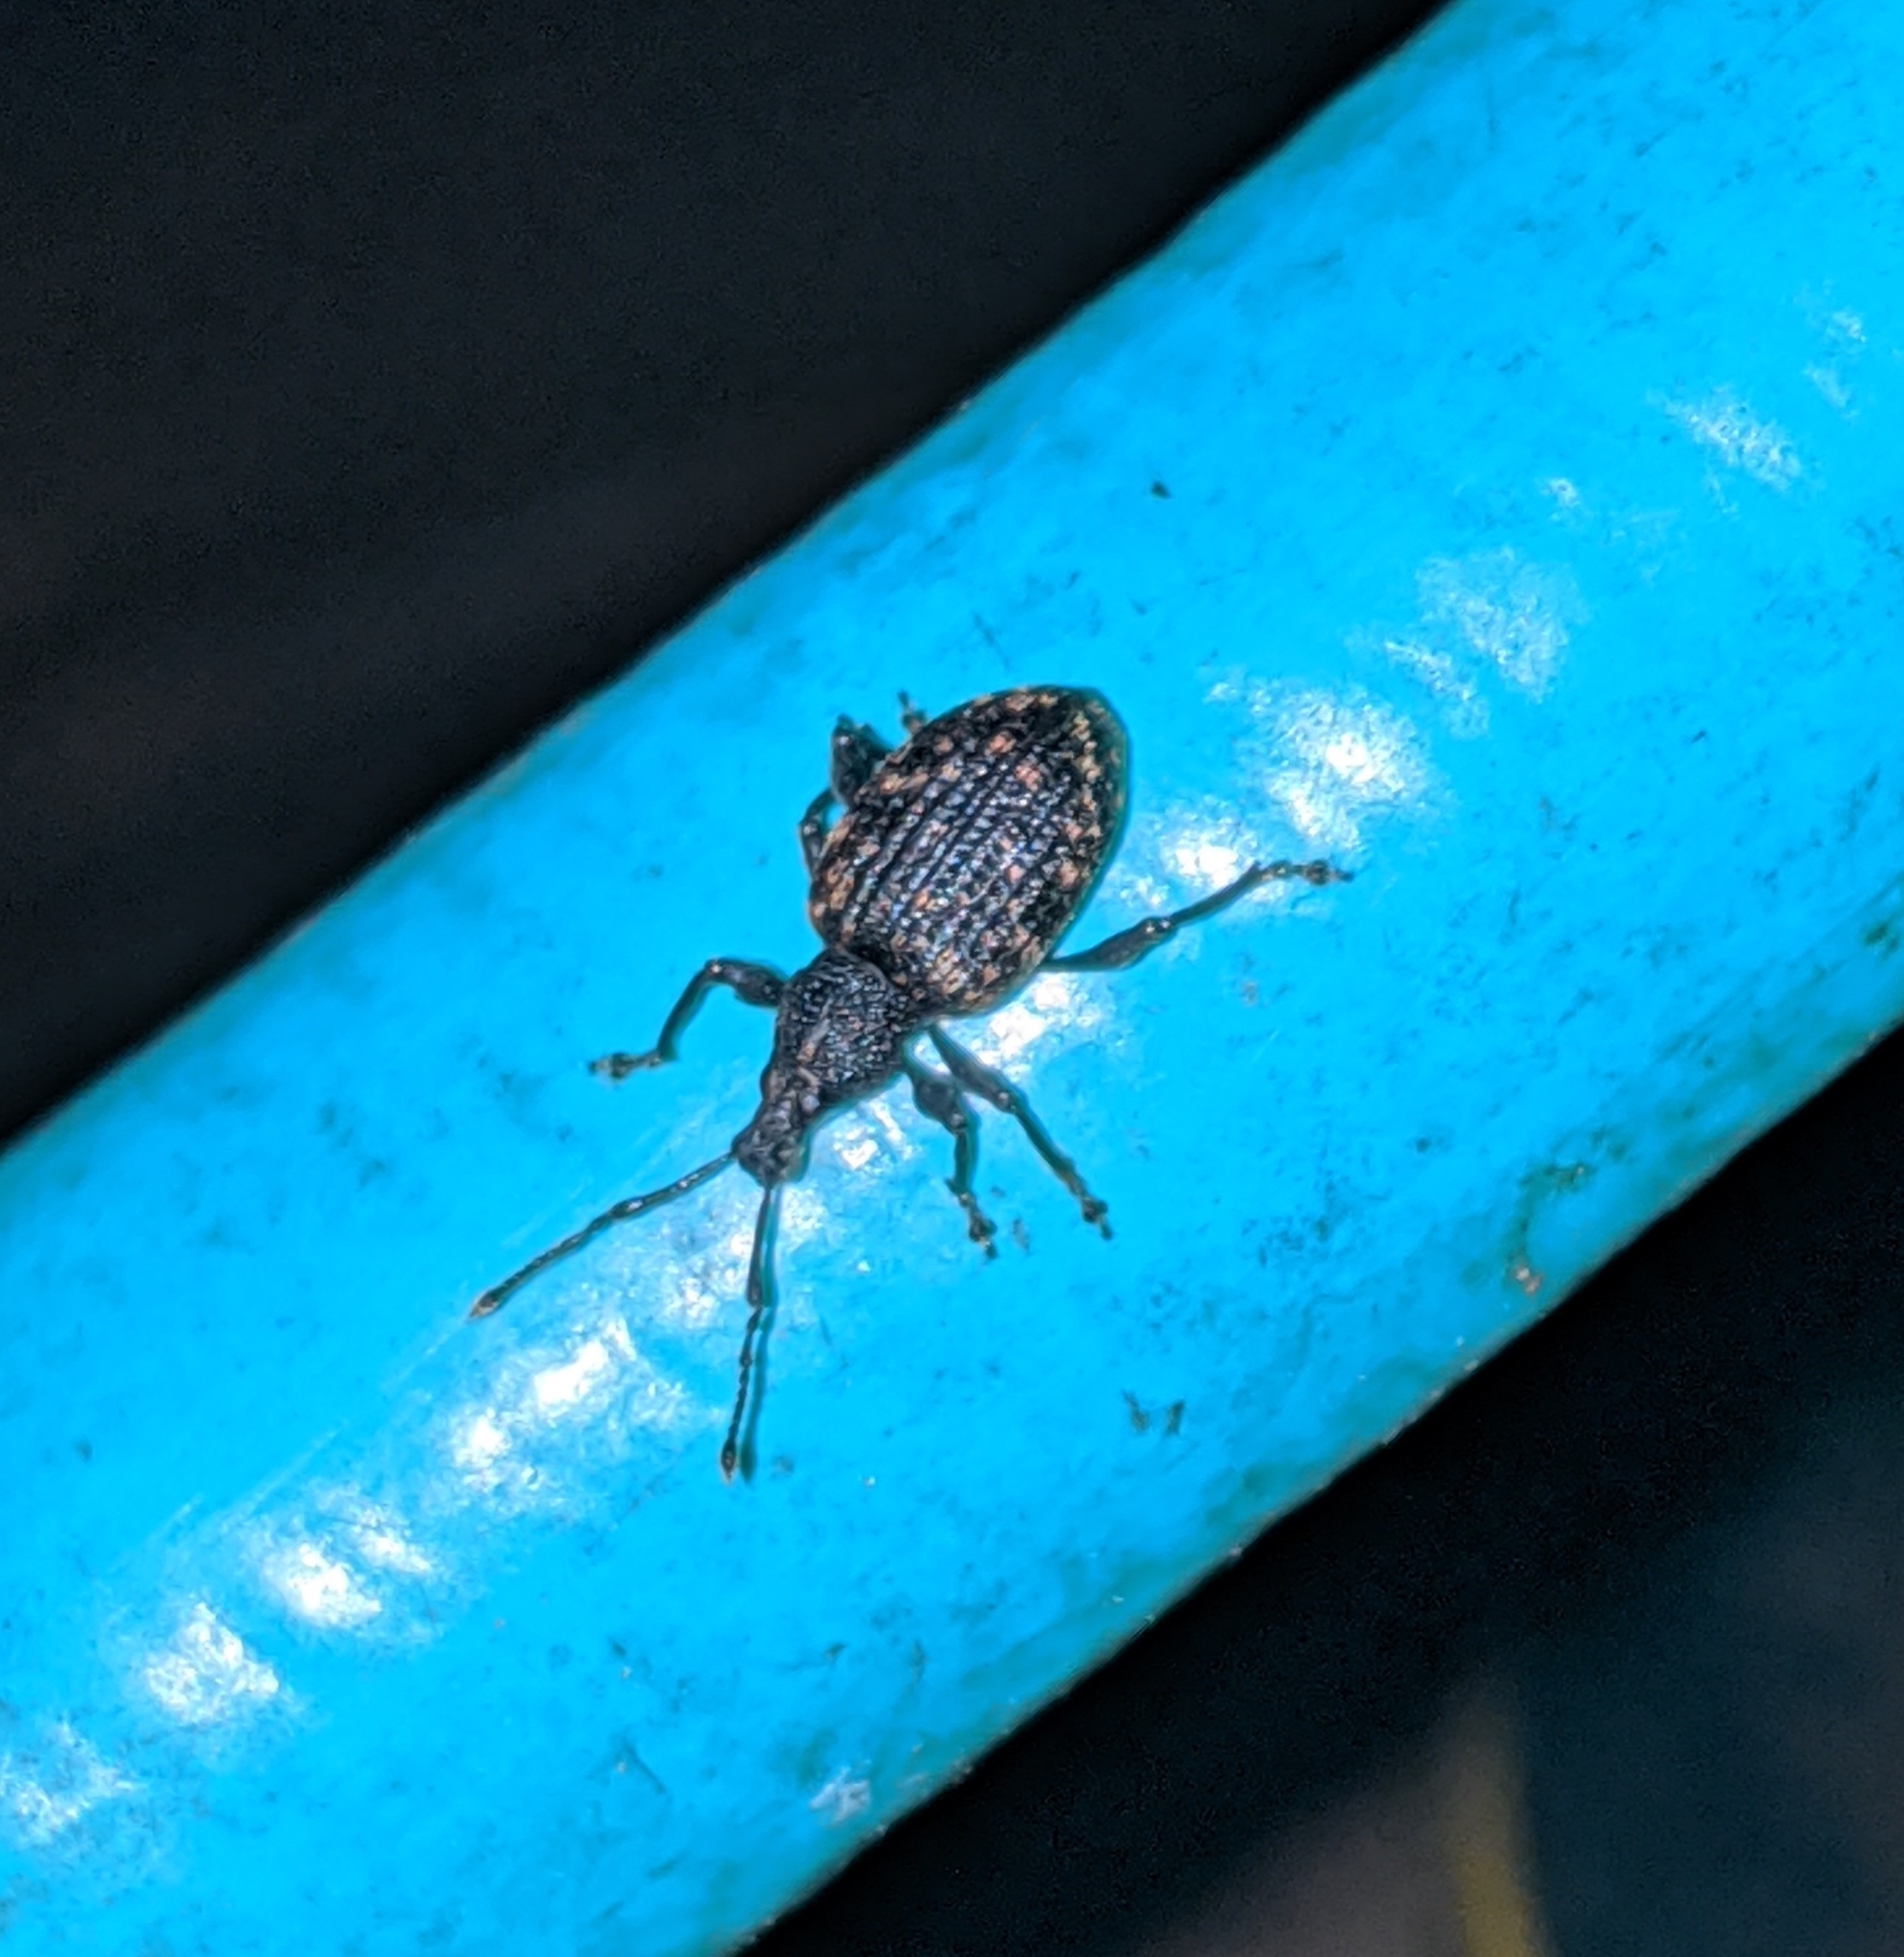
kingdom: Animalia
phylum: Arthropoda
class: Insecta
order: Coleoptera
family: Curculionidae
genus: Otiorhynchus
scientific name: Otiorhynchus sulcatus
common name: Black vine weevil
